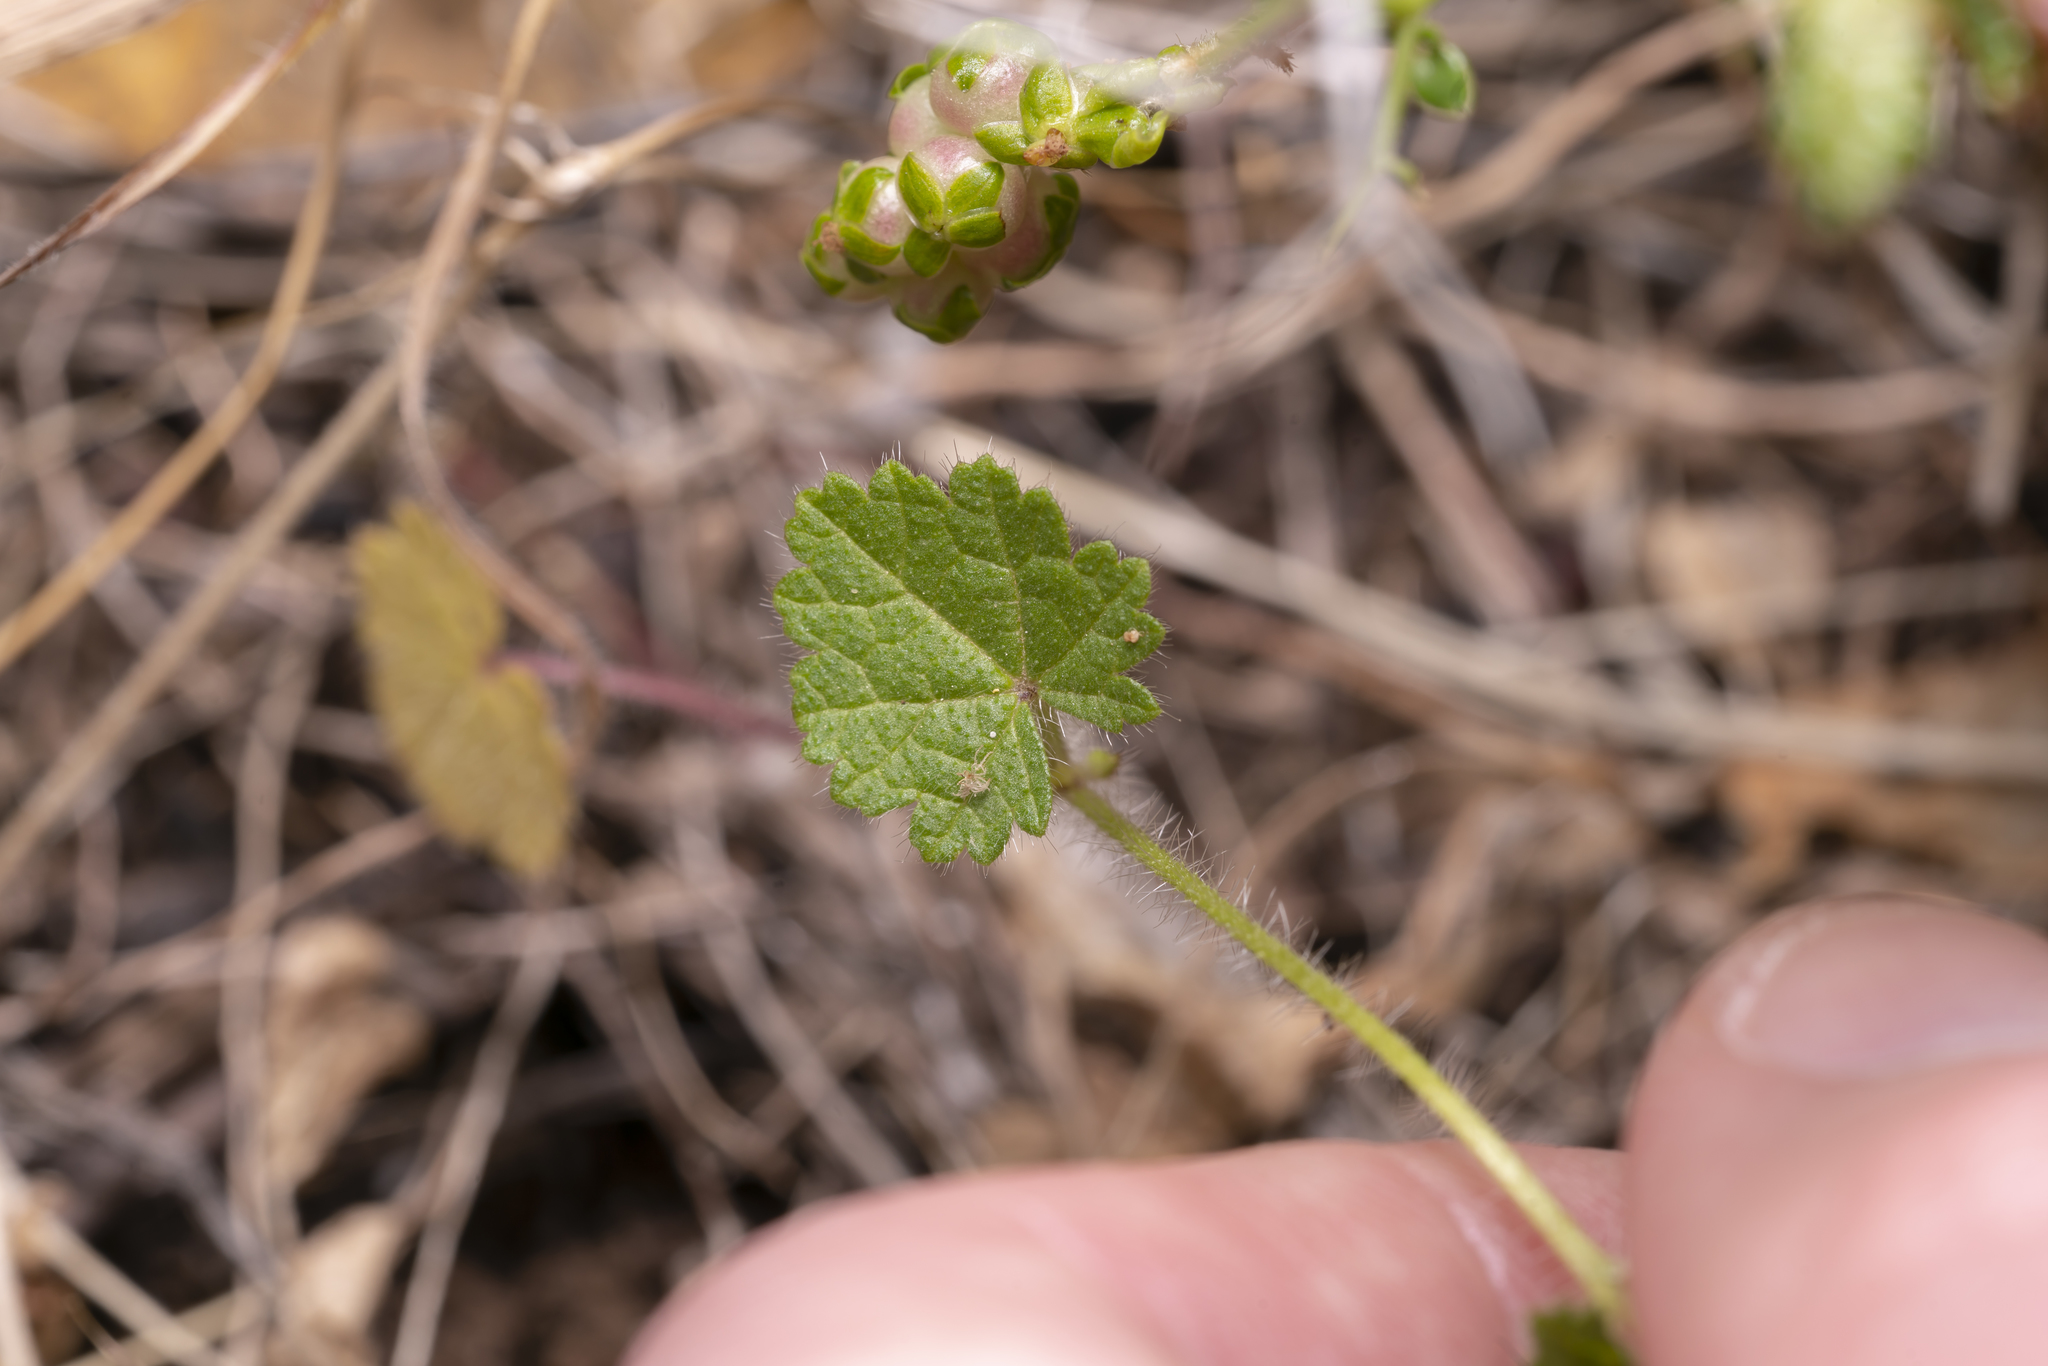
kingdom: Plantae
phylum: Tracheophyta
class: Magnoliopsida
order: Malvales
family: Malvaceae
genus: Malva
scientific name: Malva cretica
